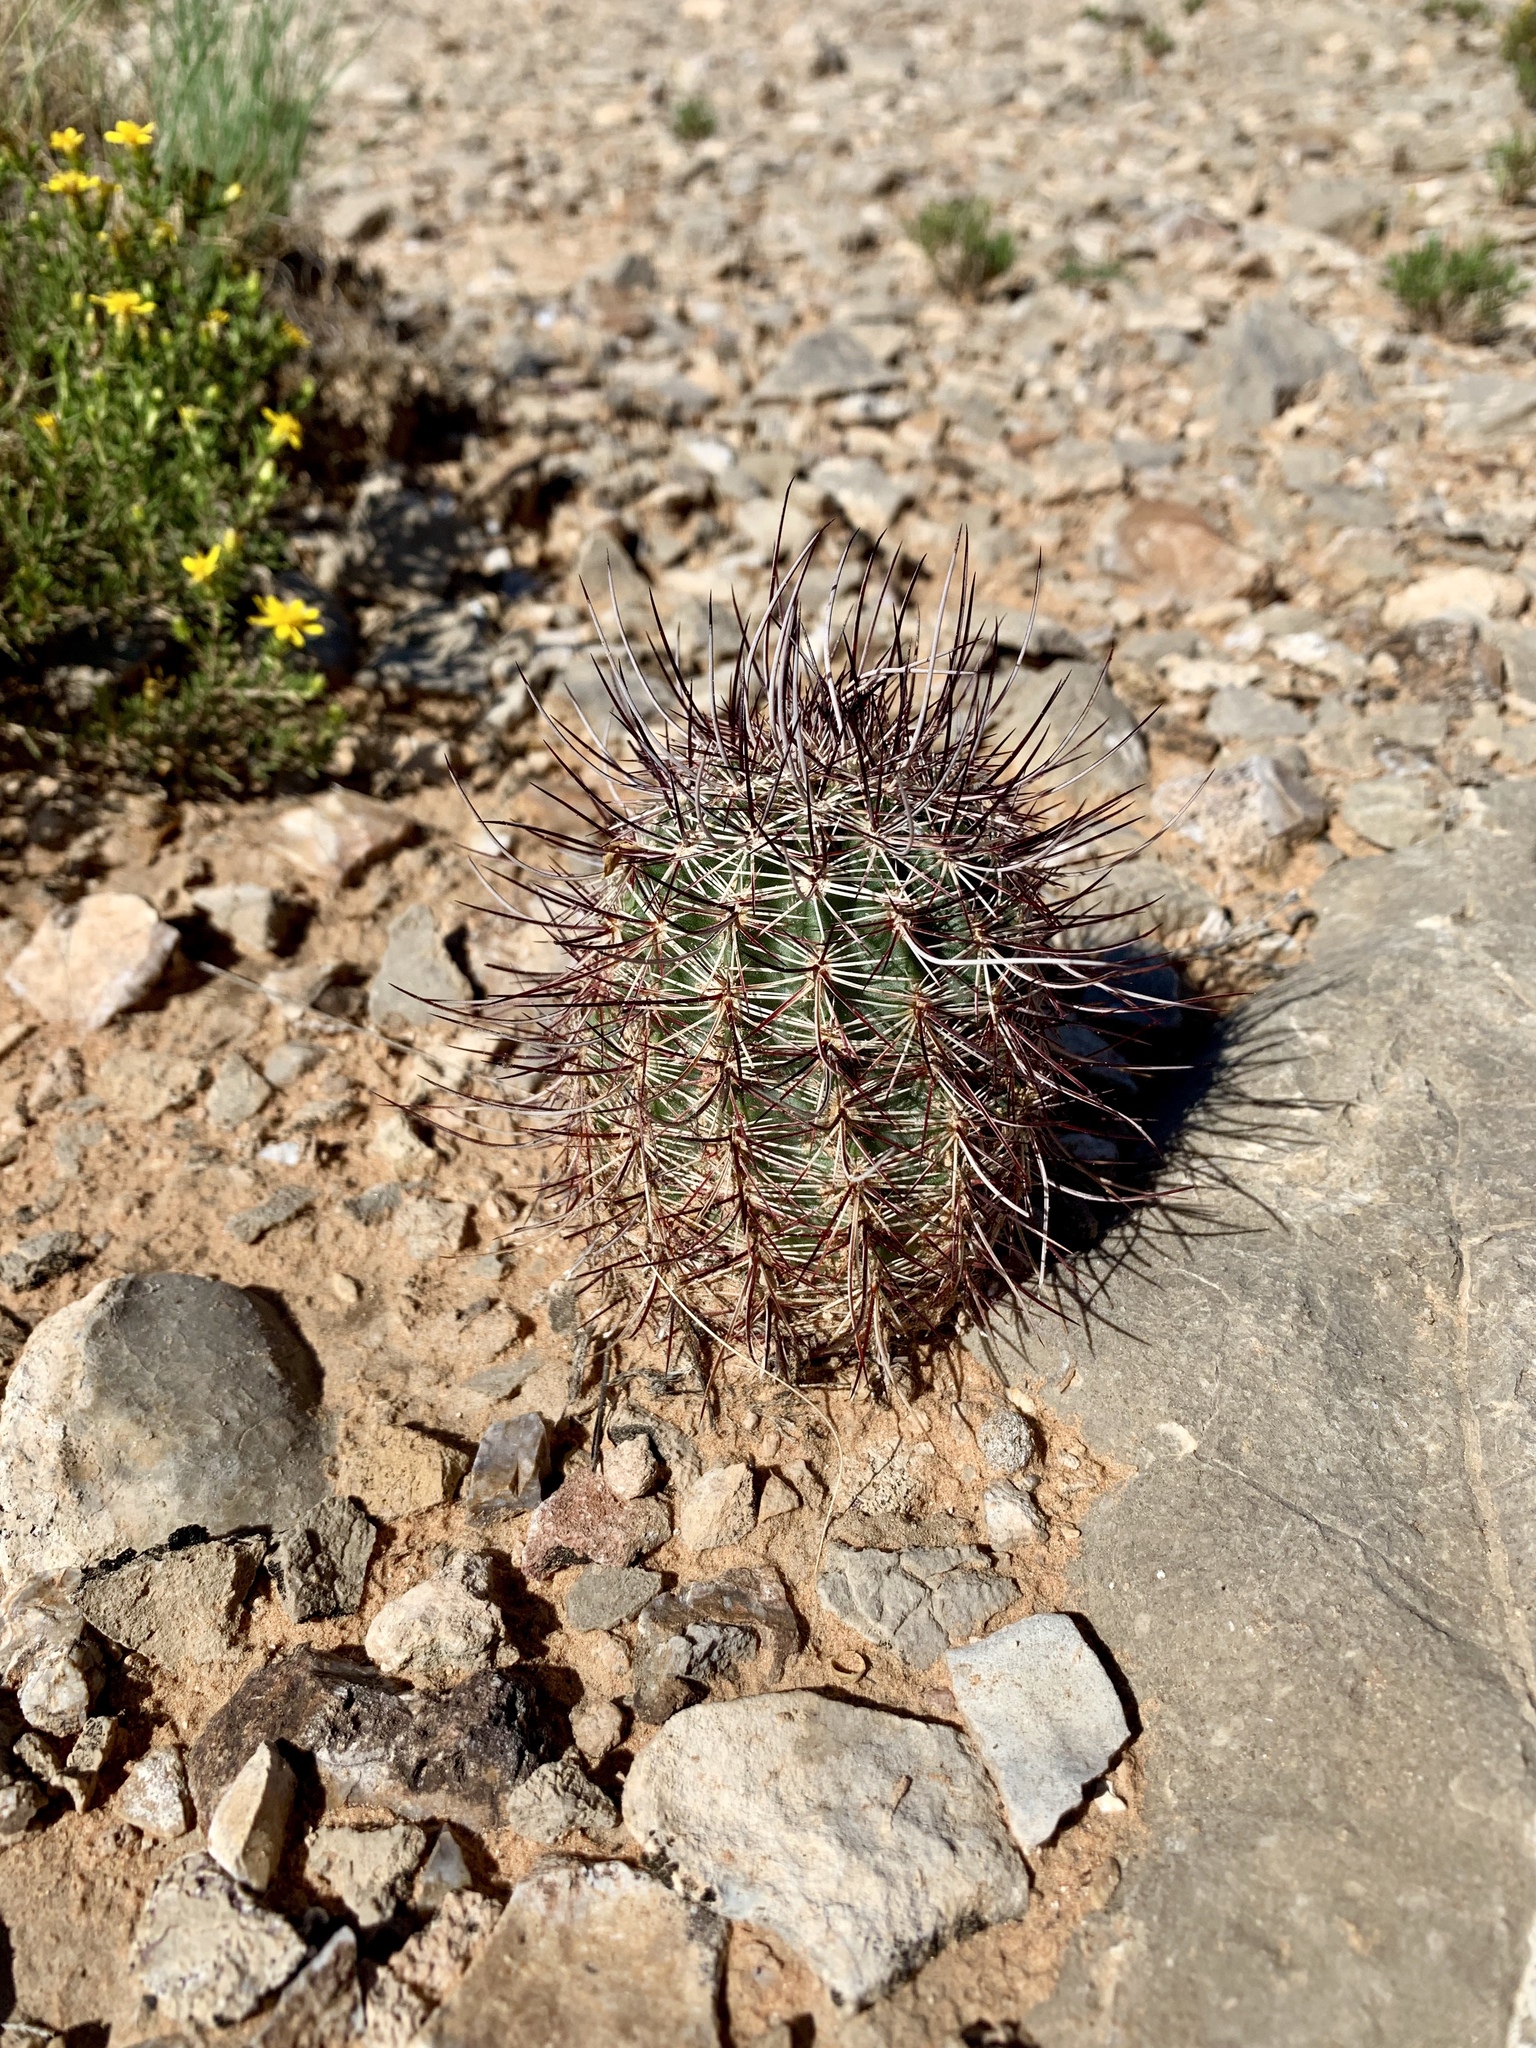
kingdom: Plantae
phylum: Tracheophyta
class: Magnoliopsida
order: Caryophyllales
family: Cactaceae
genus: Echinocereus
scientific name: Echinocereus viridiflorus
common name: Nylon hedgehog cactus
